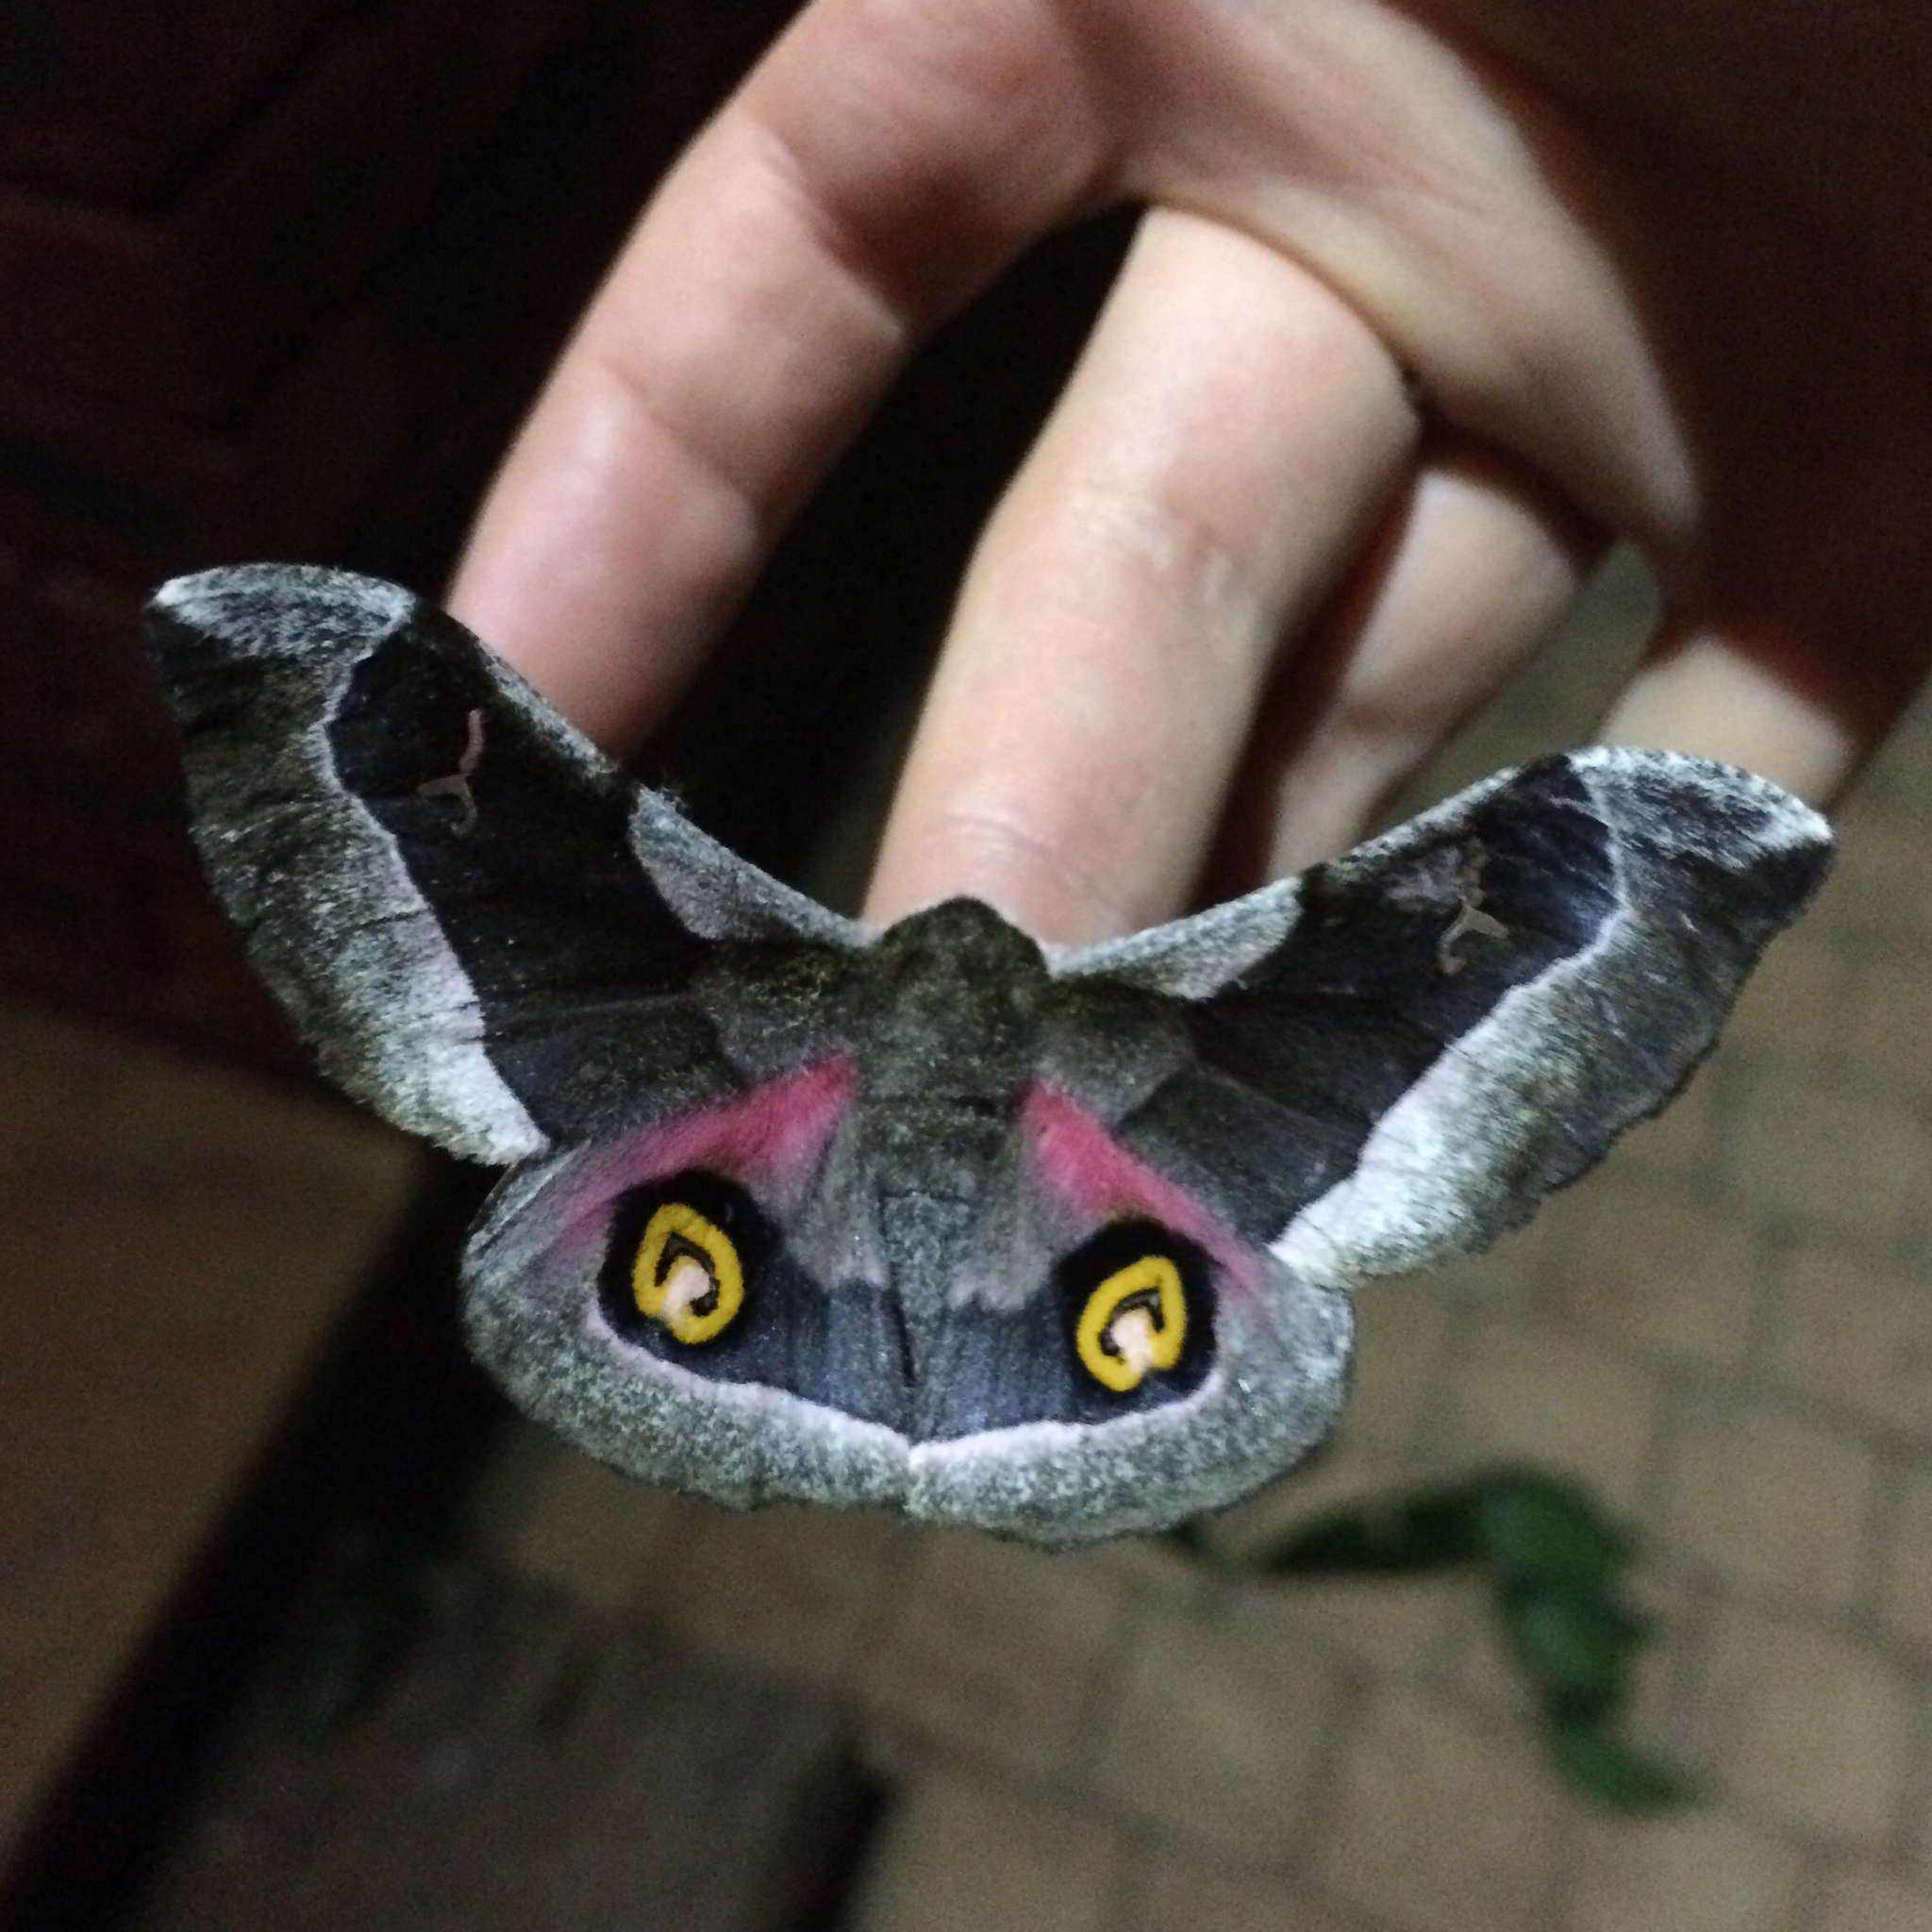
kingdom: Animalia
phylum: Arthropoda
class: Insecta
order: Lepidoptera
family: Saturniidae
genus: Ludia
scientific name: Ludia delegorguei
